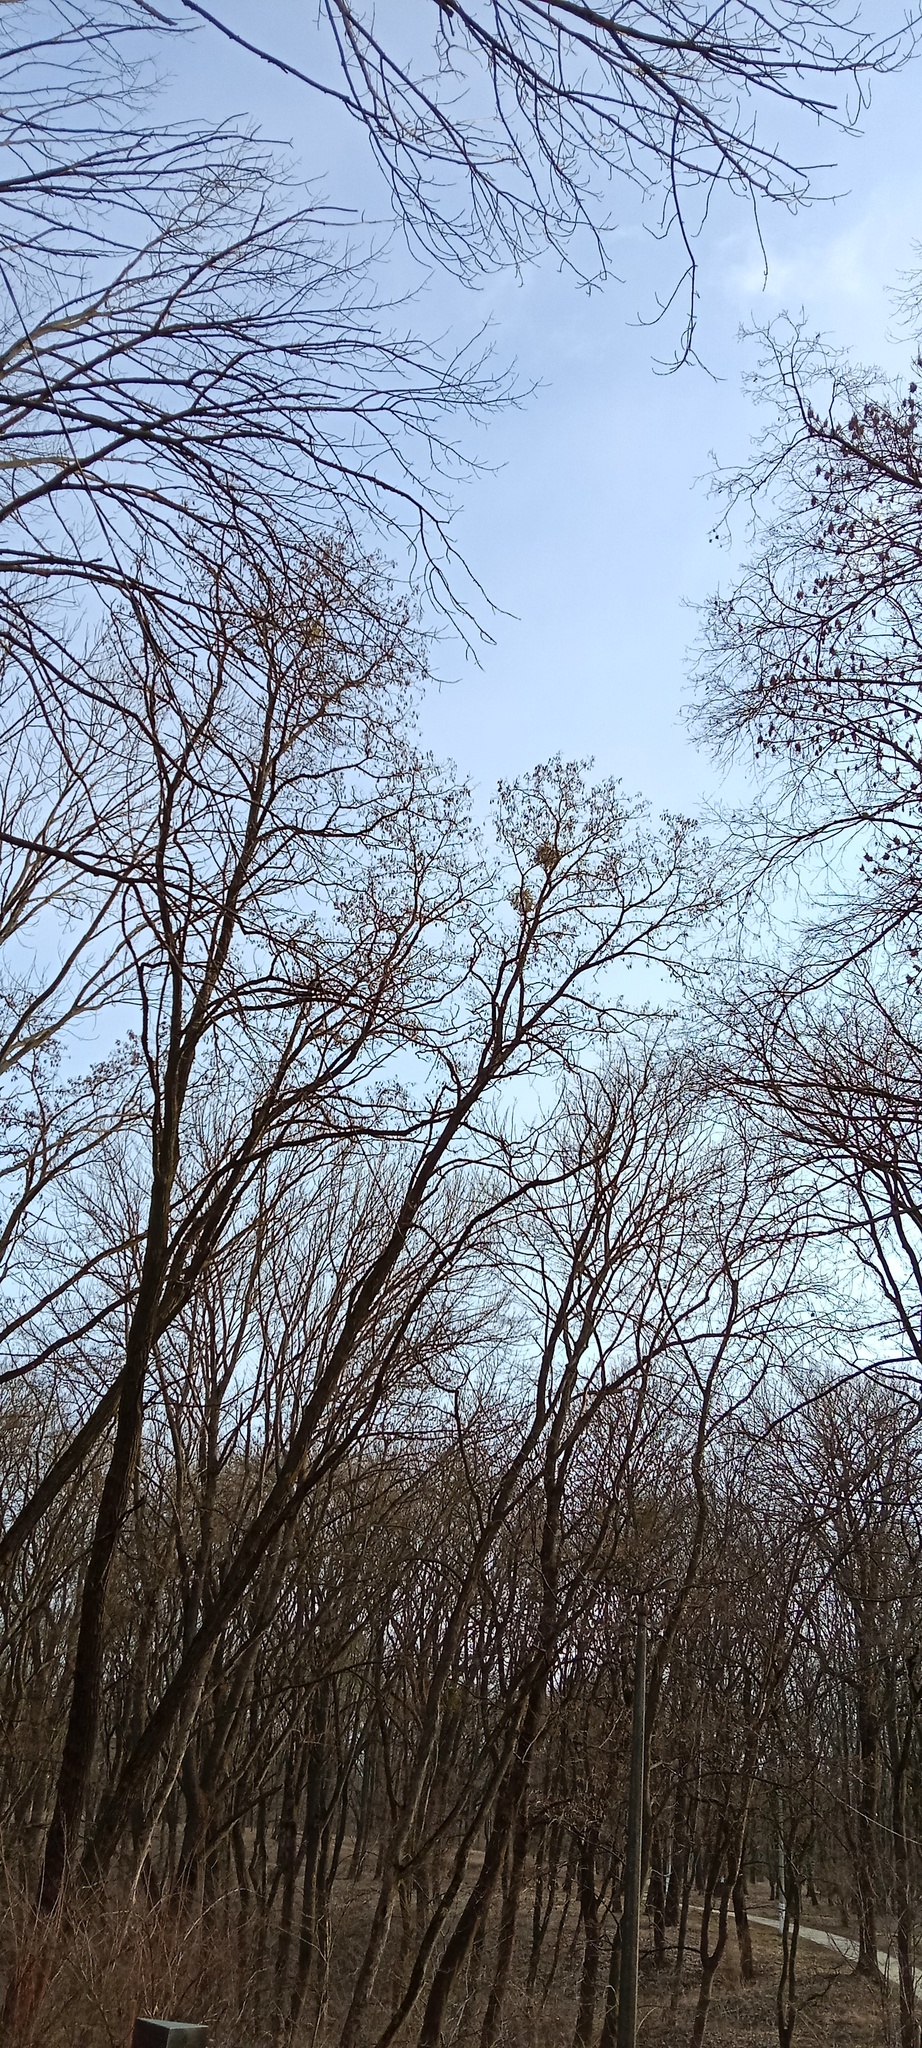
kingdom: Plantae
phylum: Tracheophyta
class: Magnoliopsida
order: Santalales
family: Viscaceae
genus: Viscum
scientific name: Viscum album
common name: Mistletoe
